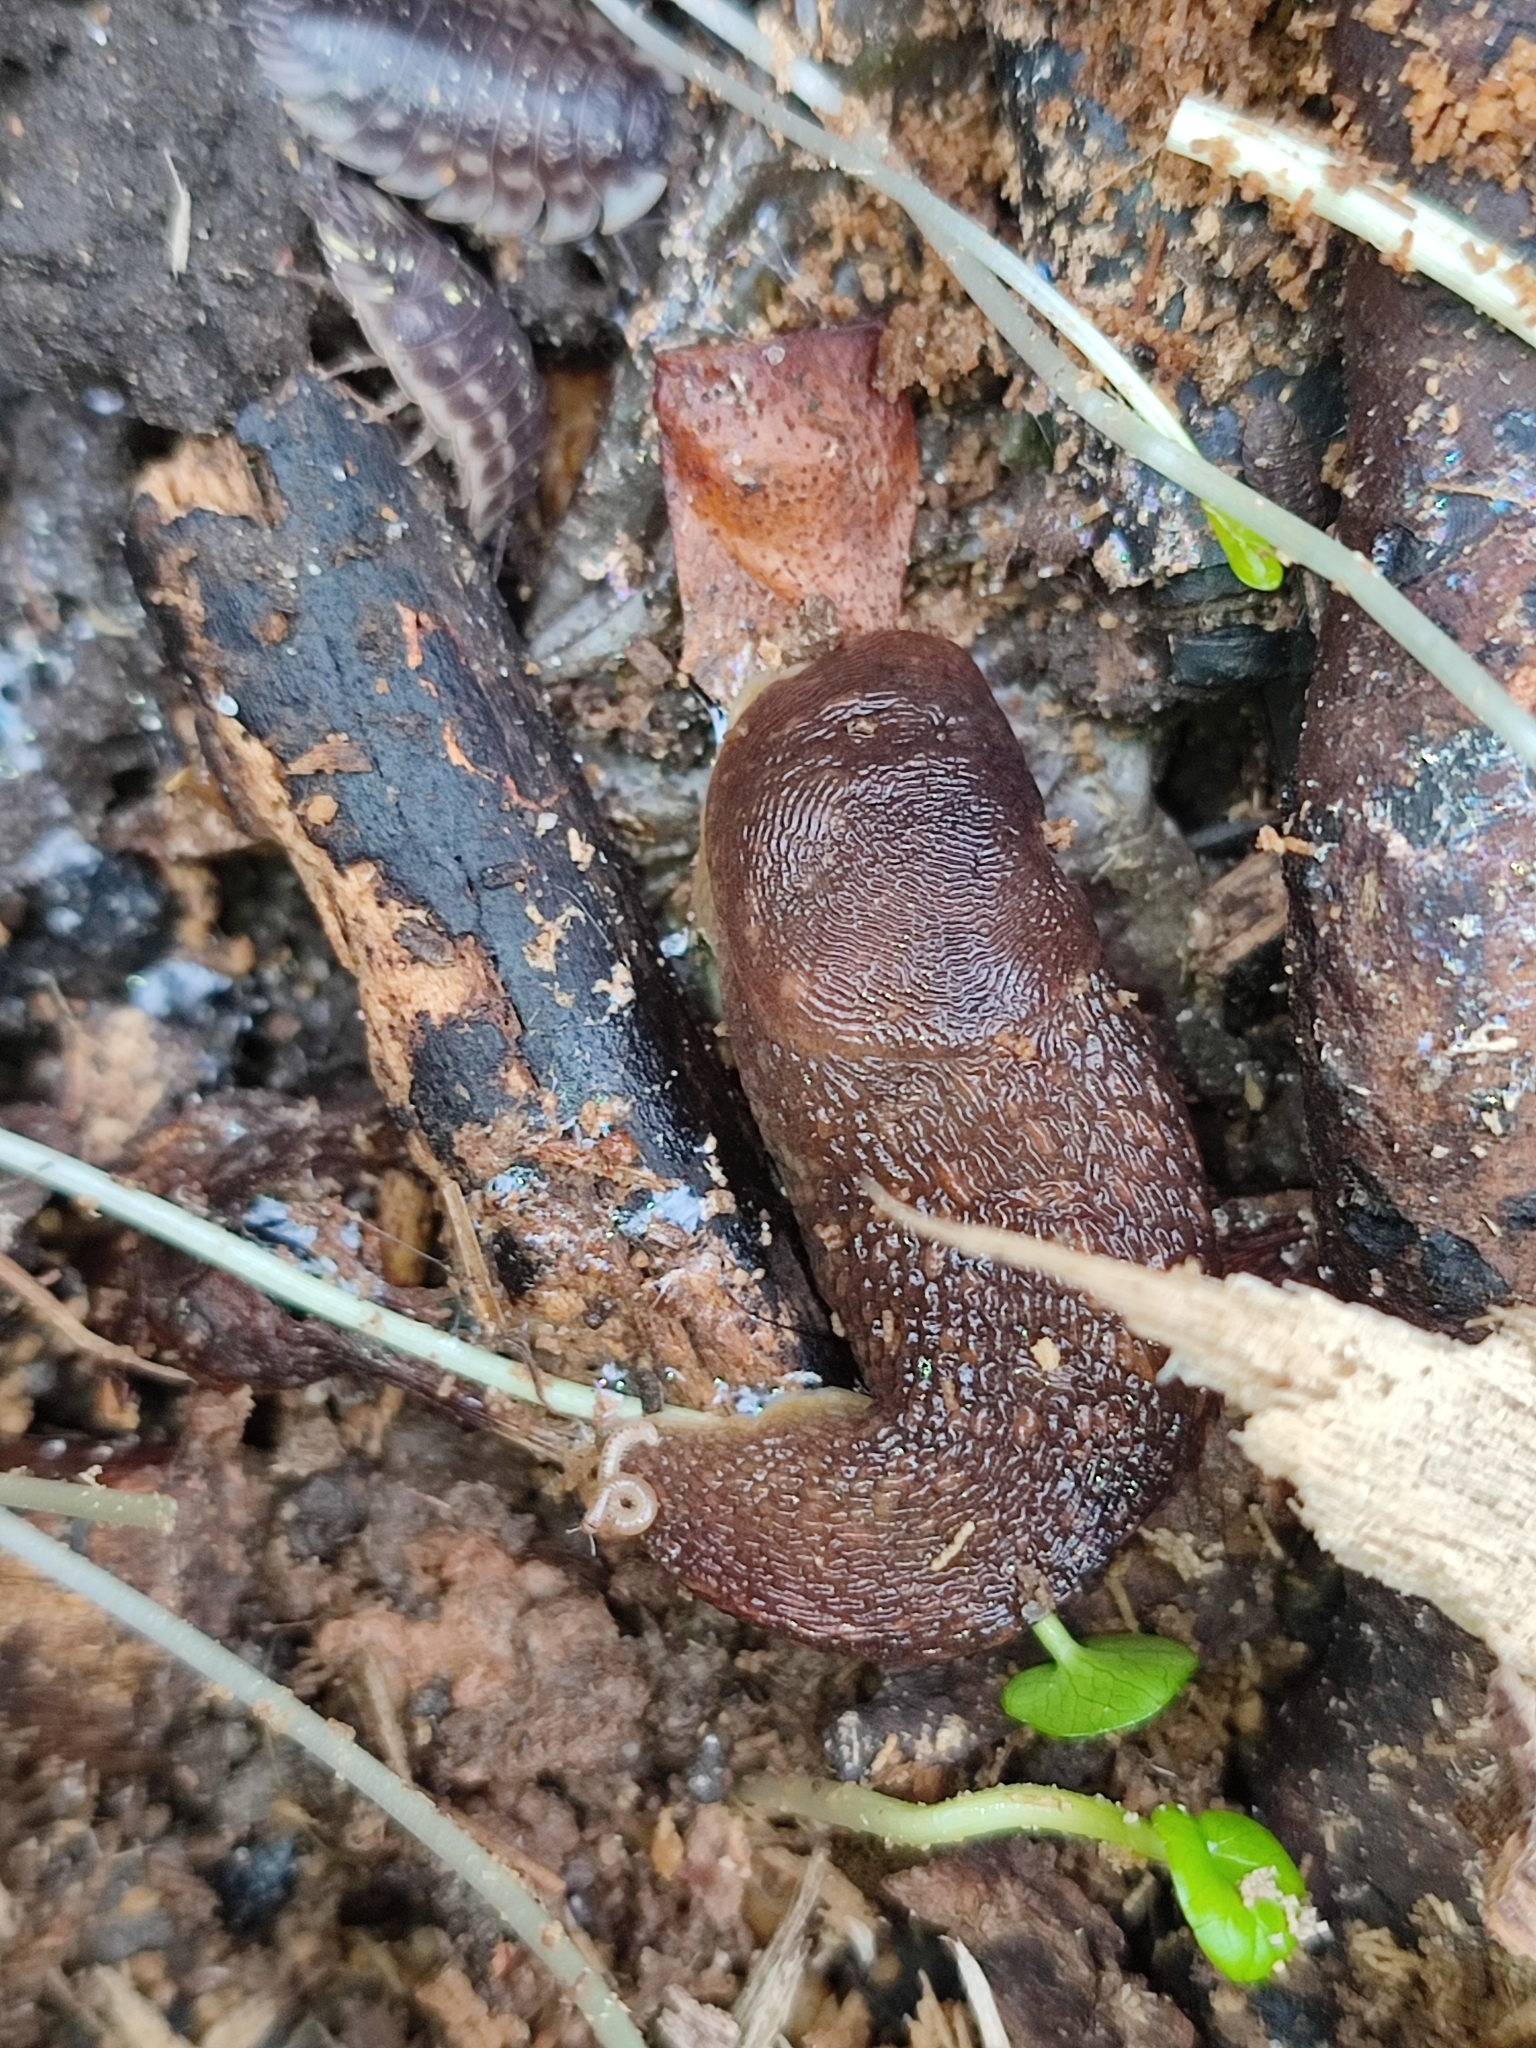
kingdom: Animalia
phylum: Mollusca
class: Gastropoda
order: Stylommatophora
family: Limacidae
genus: Limacus
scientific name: Limacus
